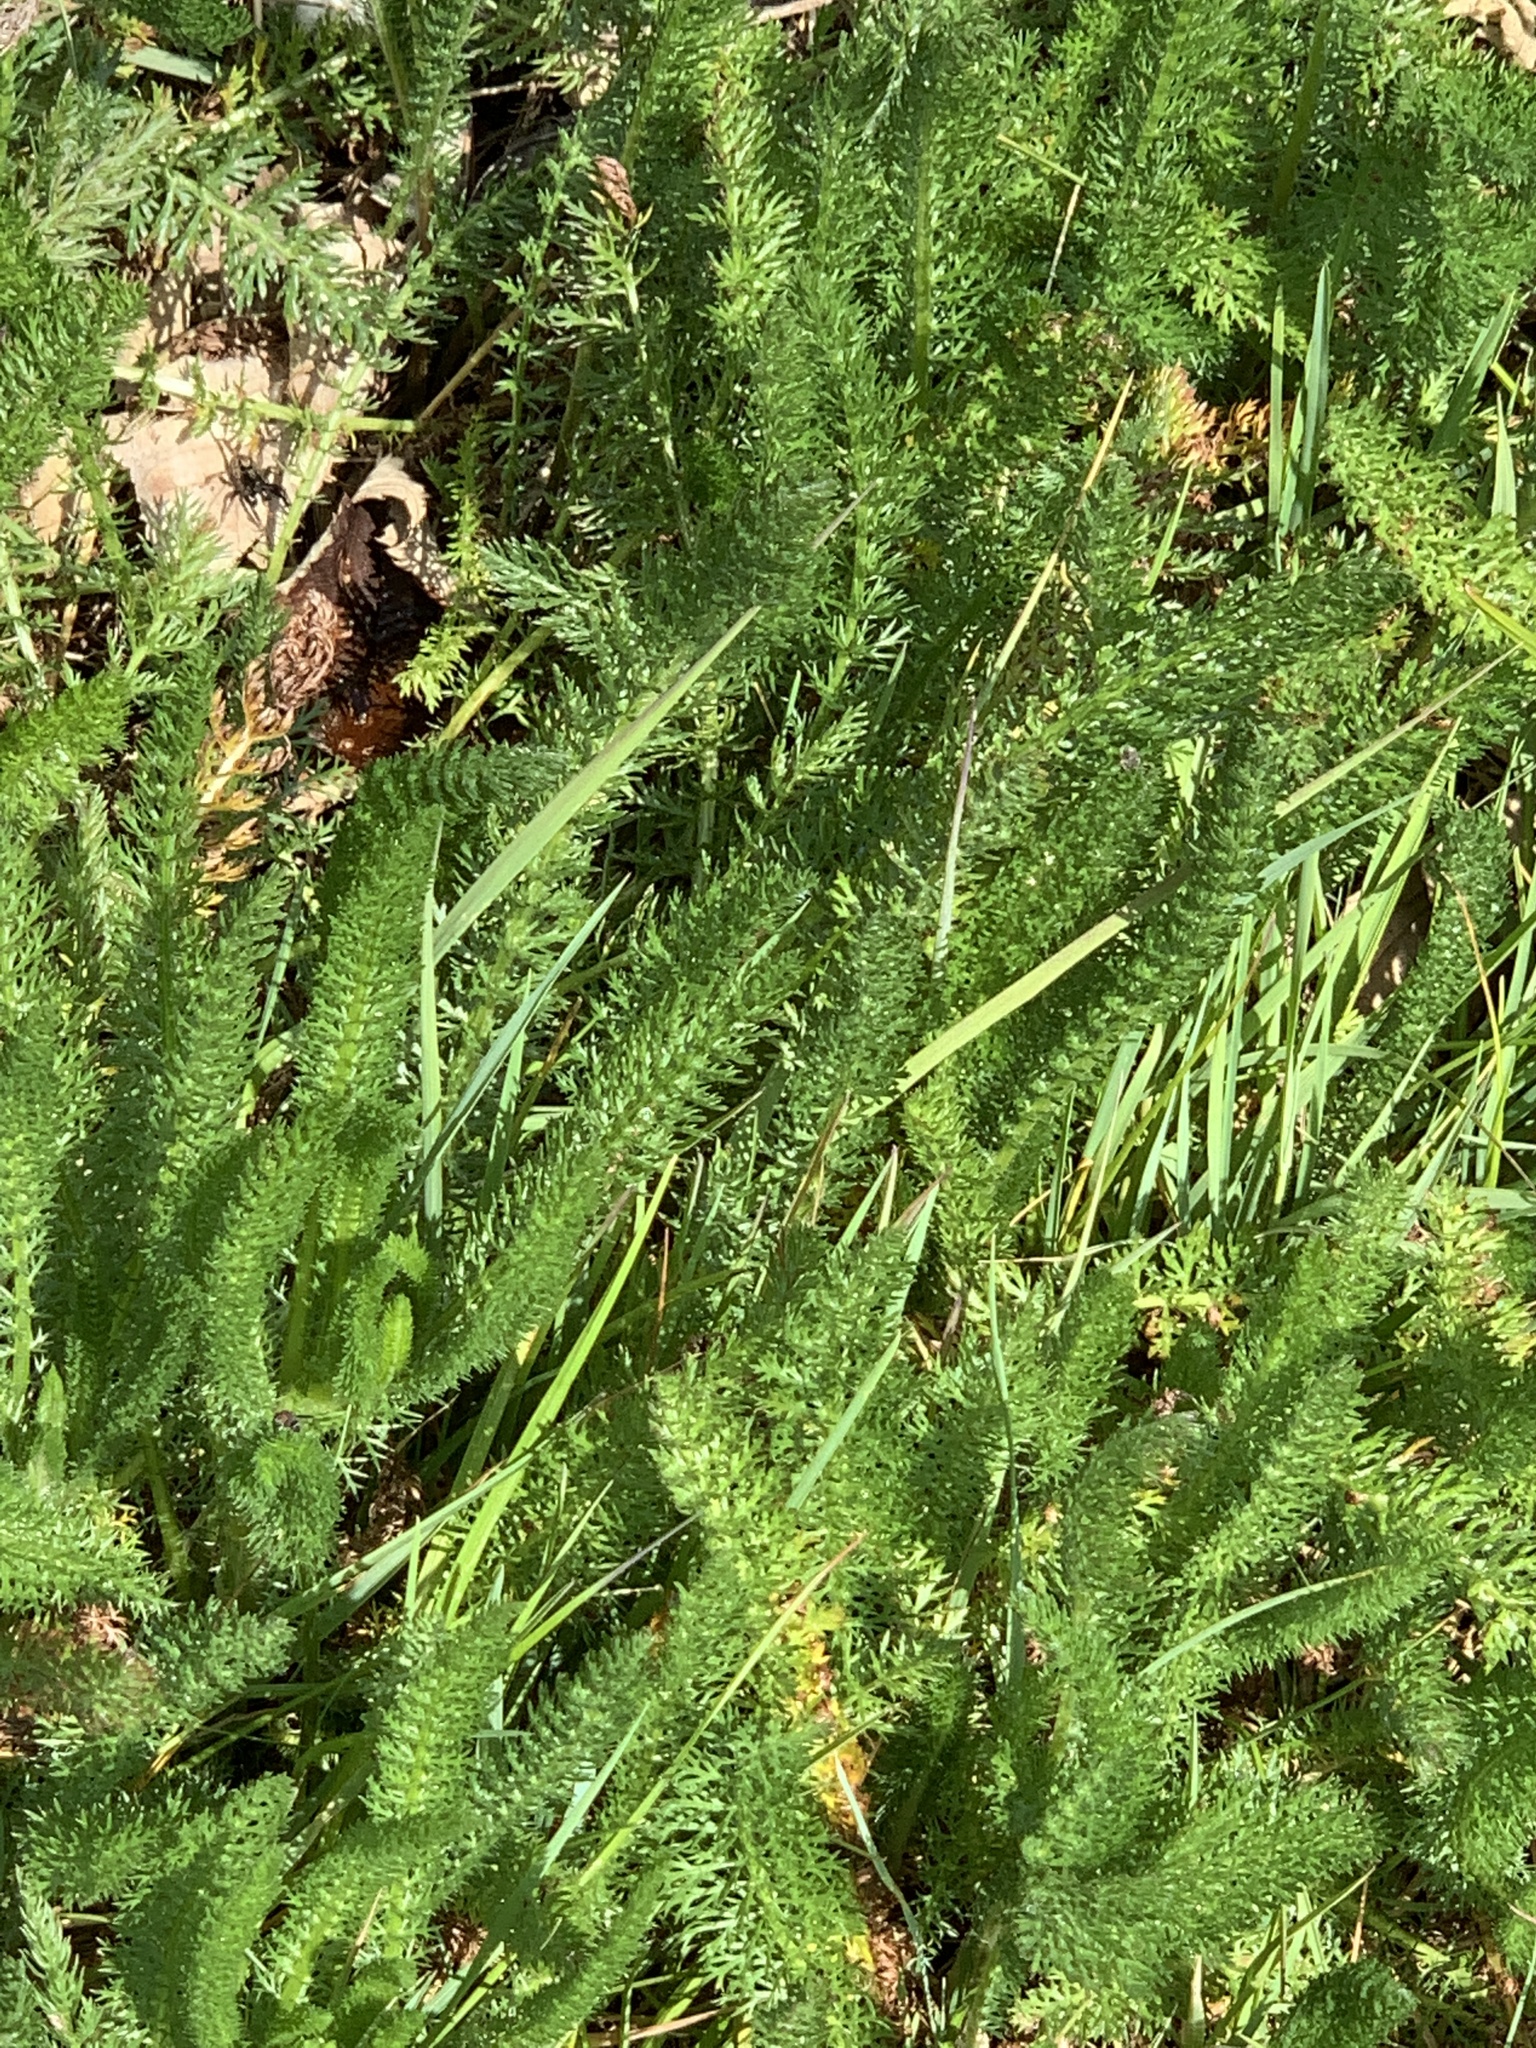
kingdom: Plantae
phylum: Tracheophyta
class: Magnoliopsida
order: Asterales
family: Asteraceae
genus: Achillea
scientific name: Achillea millefolium
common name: Yarrow
